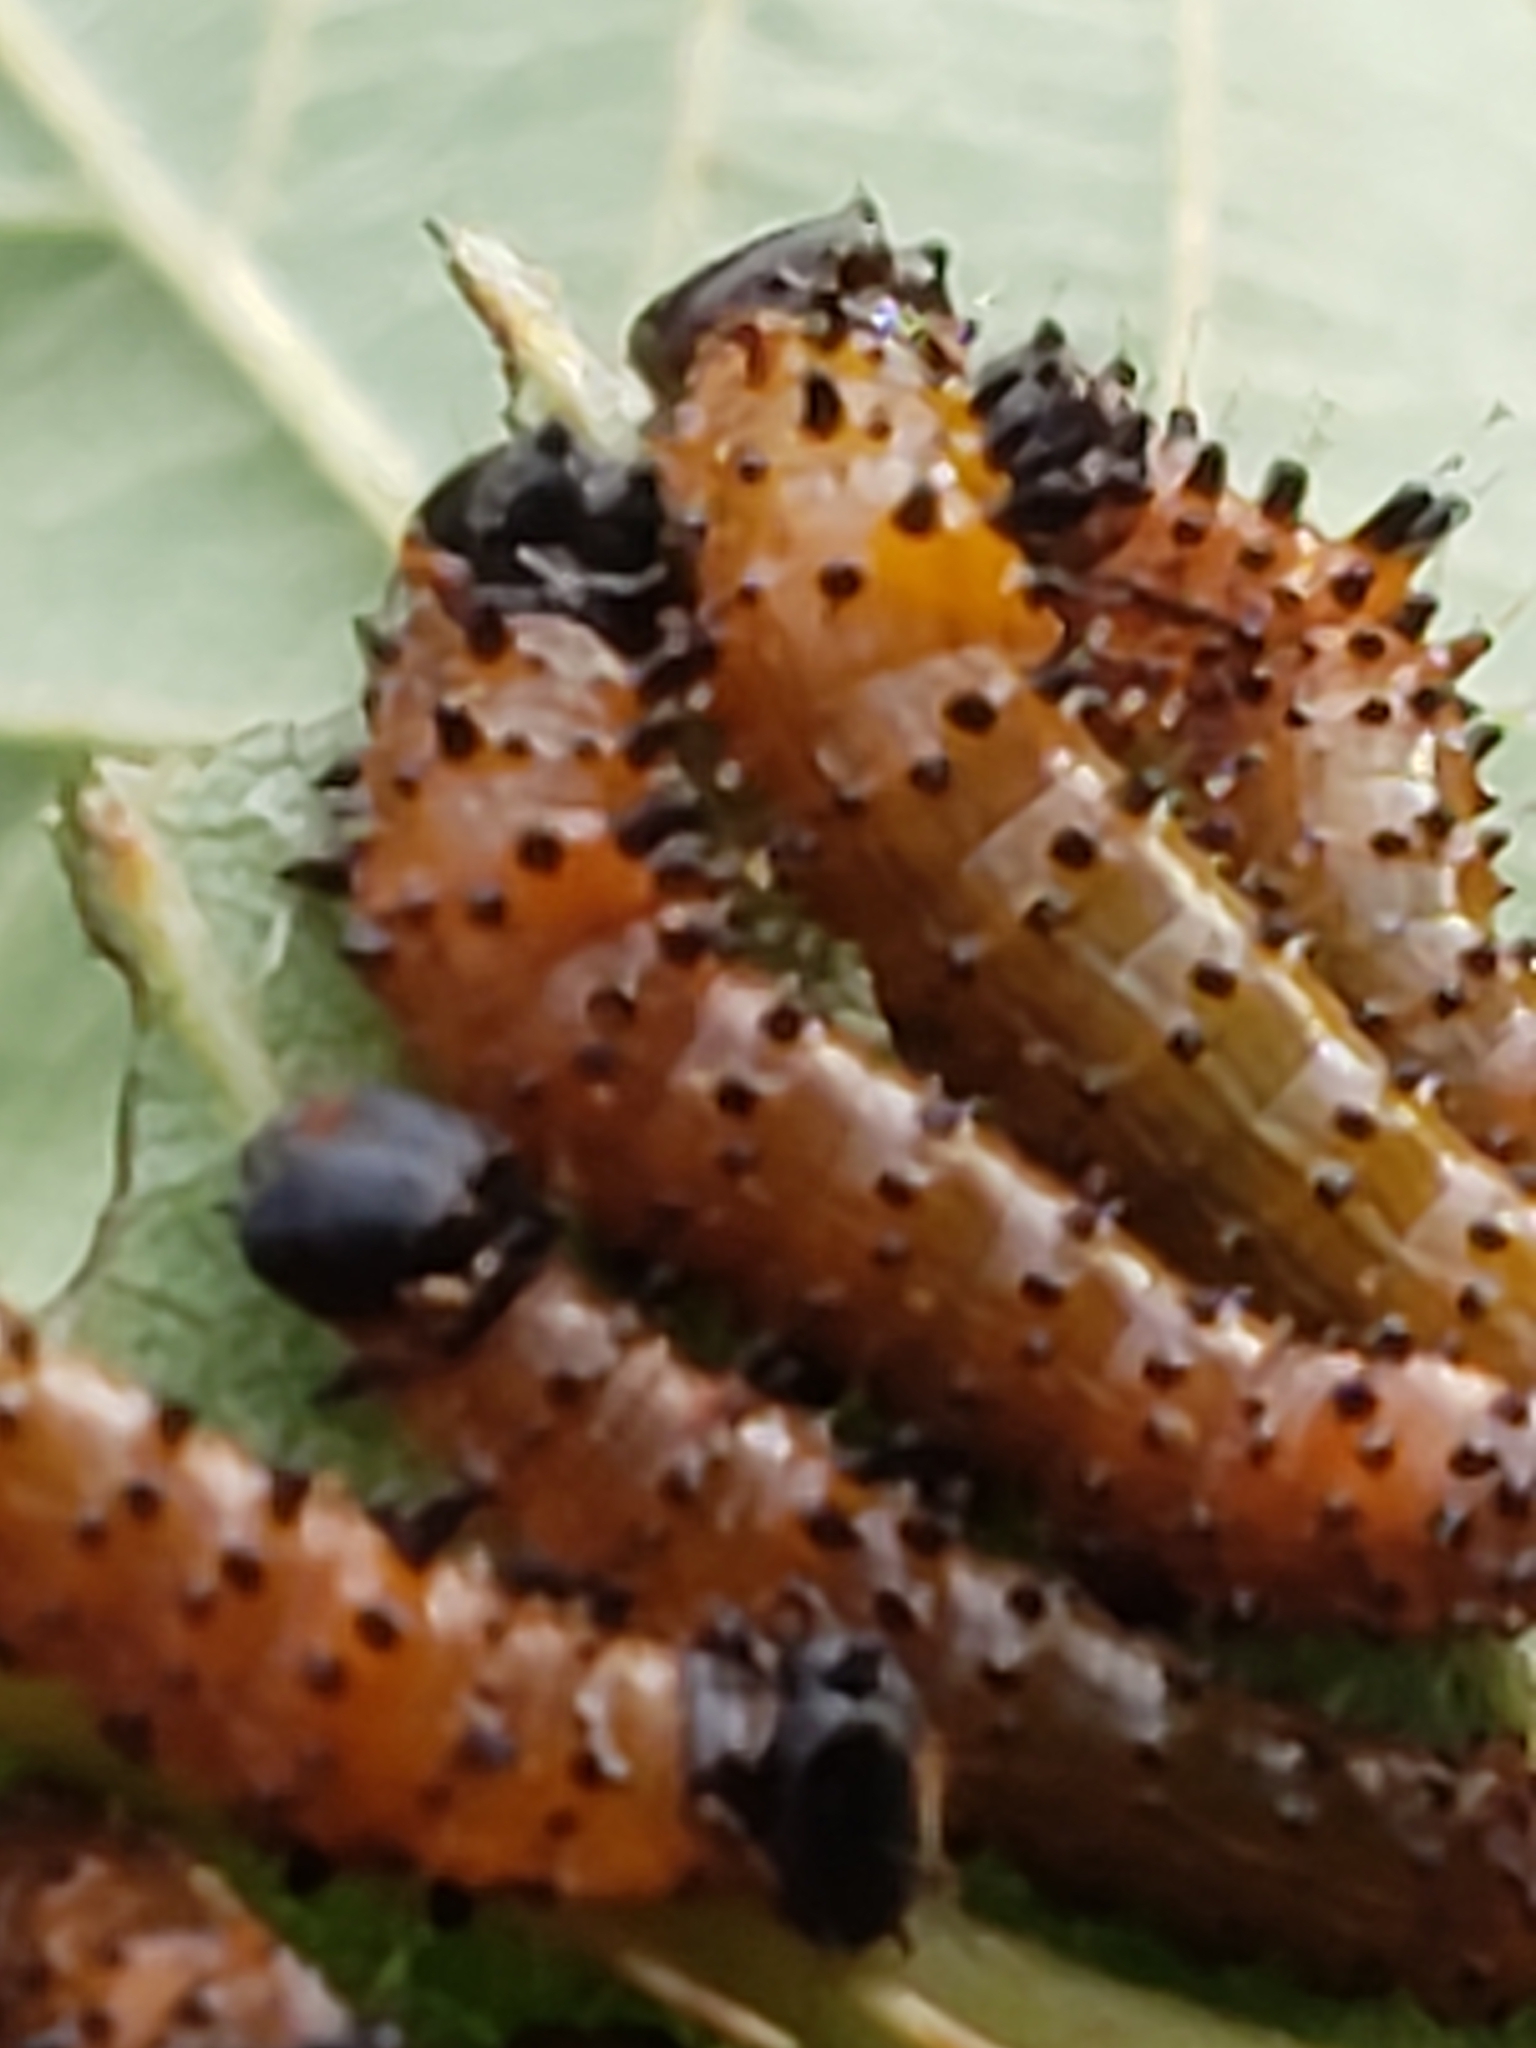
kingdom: Animalia
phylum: Arthropoda
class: Insecta
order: Lepidoptera
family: Notodontidae
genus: Schizura
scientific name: Schizura
